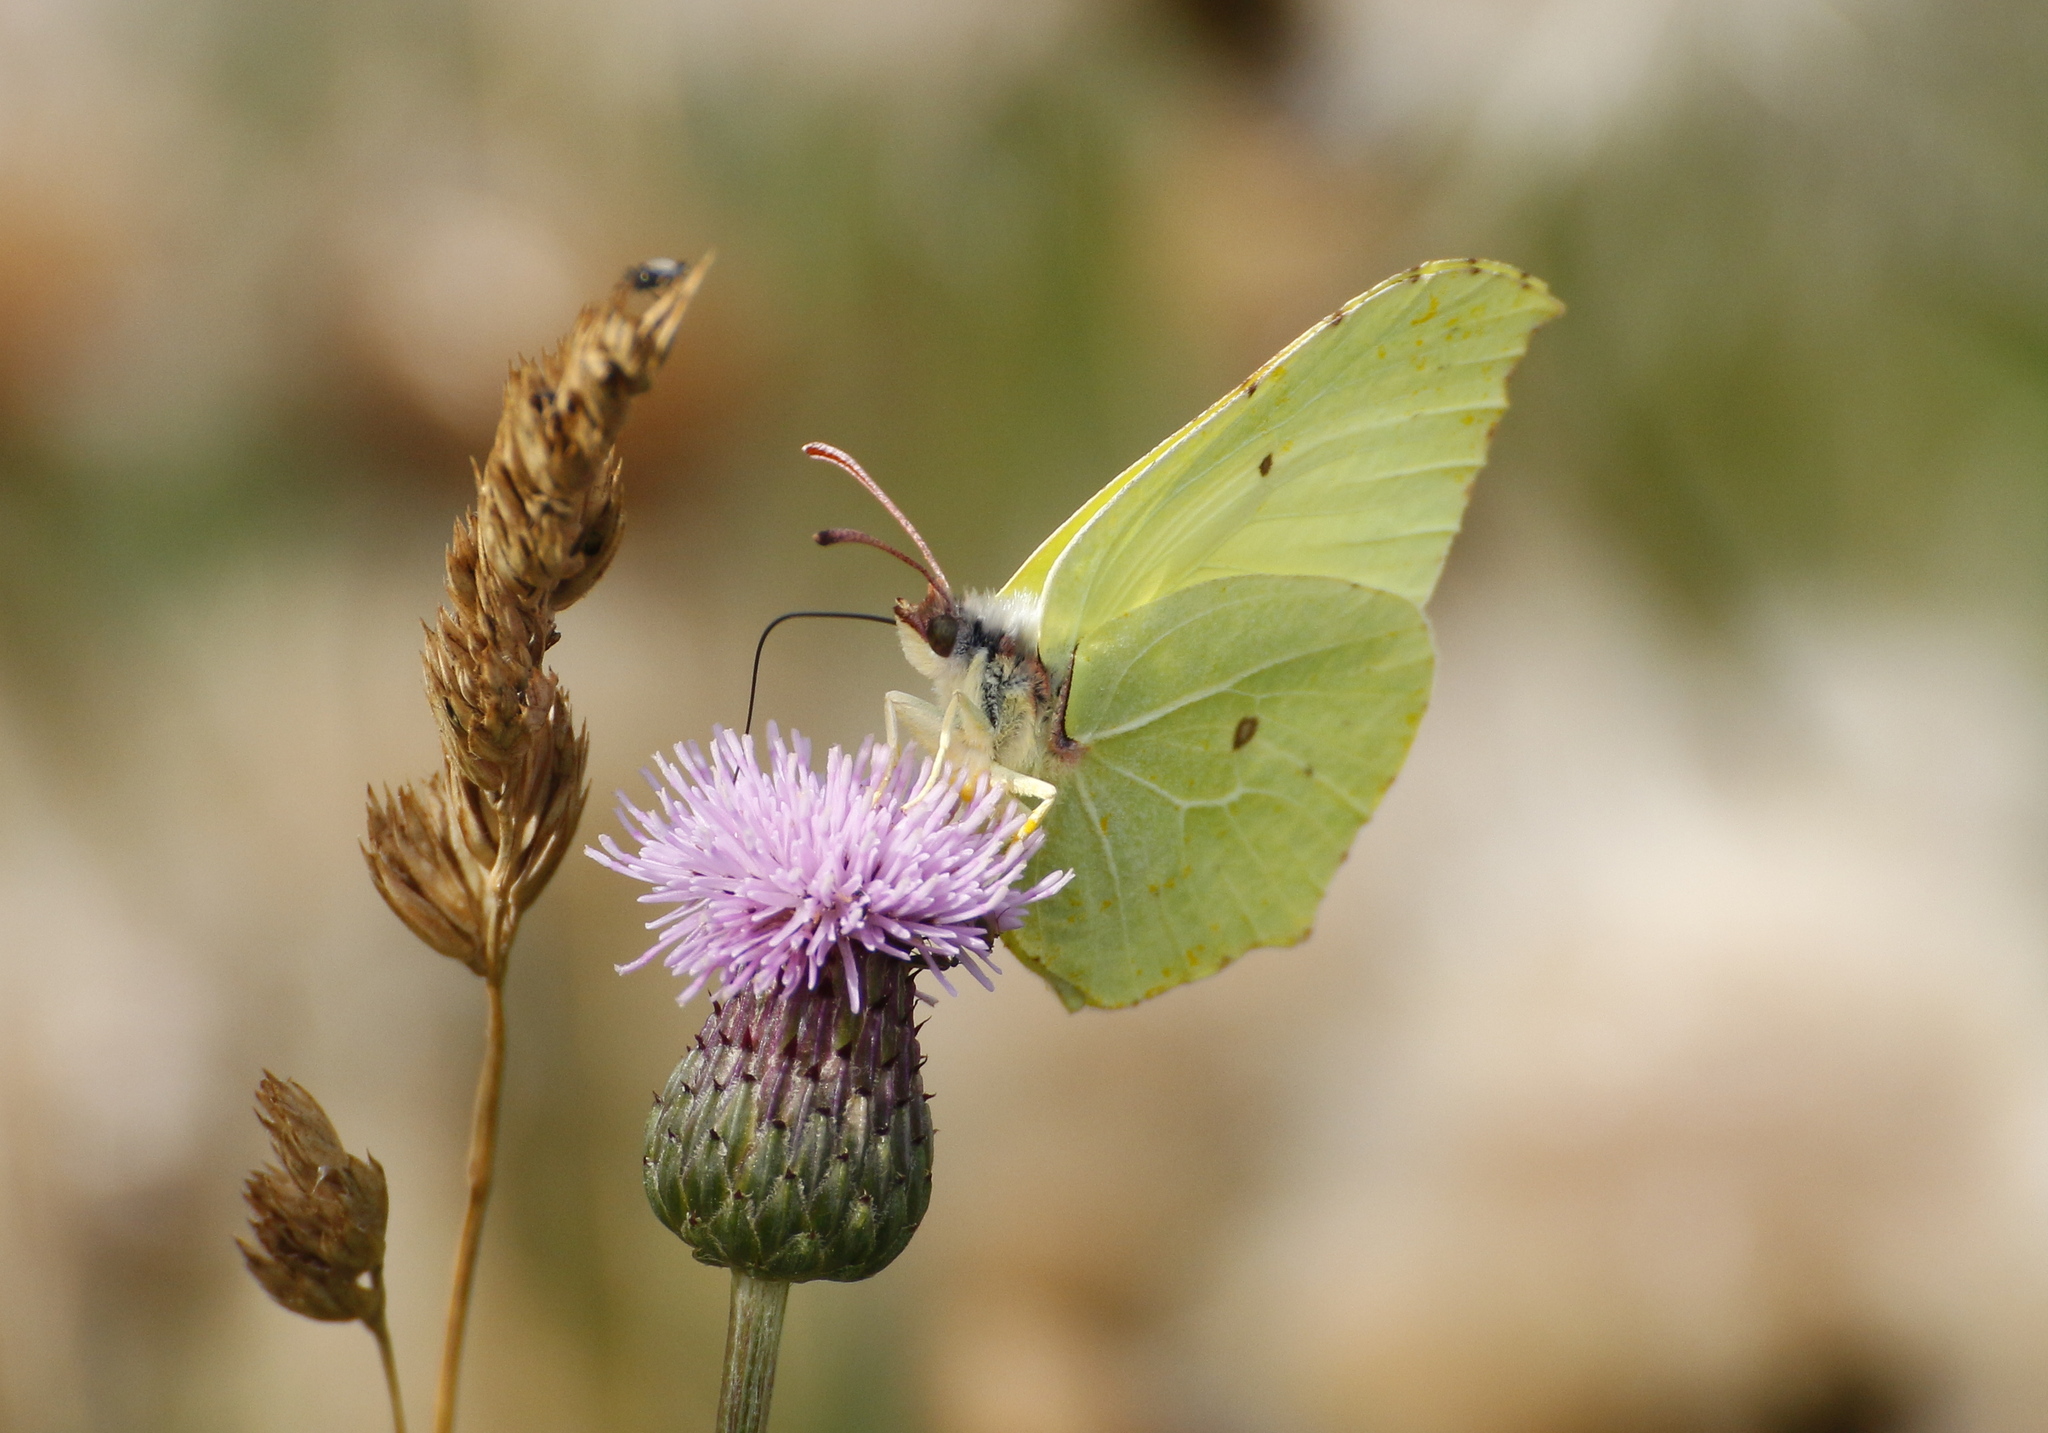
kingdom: Animalia
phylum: Arthropoda
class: Insecta
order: Lepidoptera
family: Pieridae
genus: Gonepteryx
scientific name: Gonepteryx rhamni
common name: Brimstone
